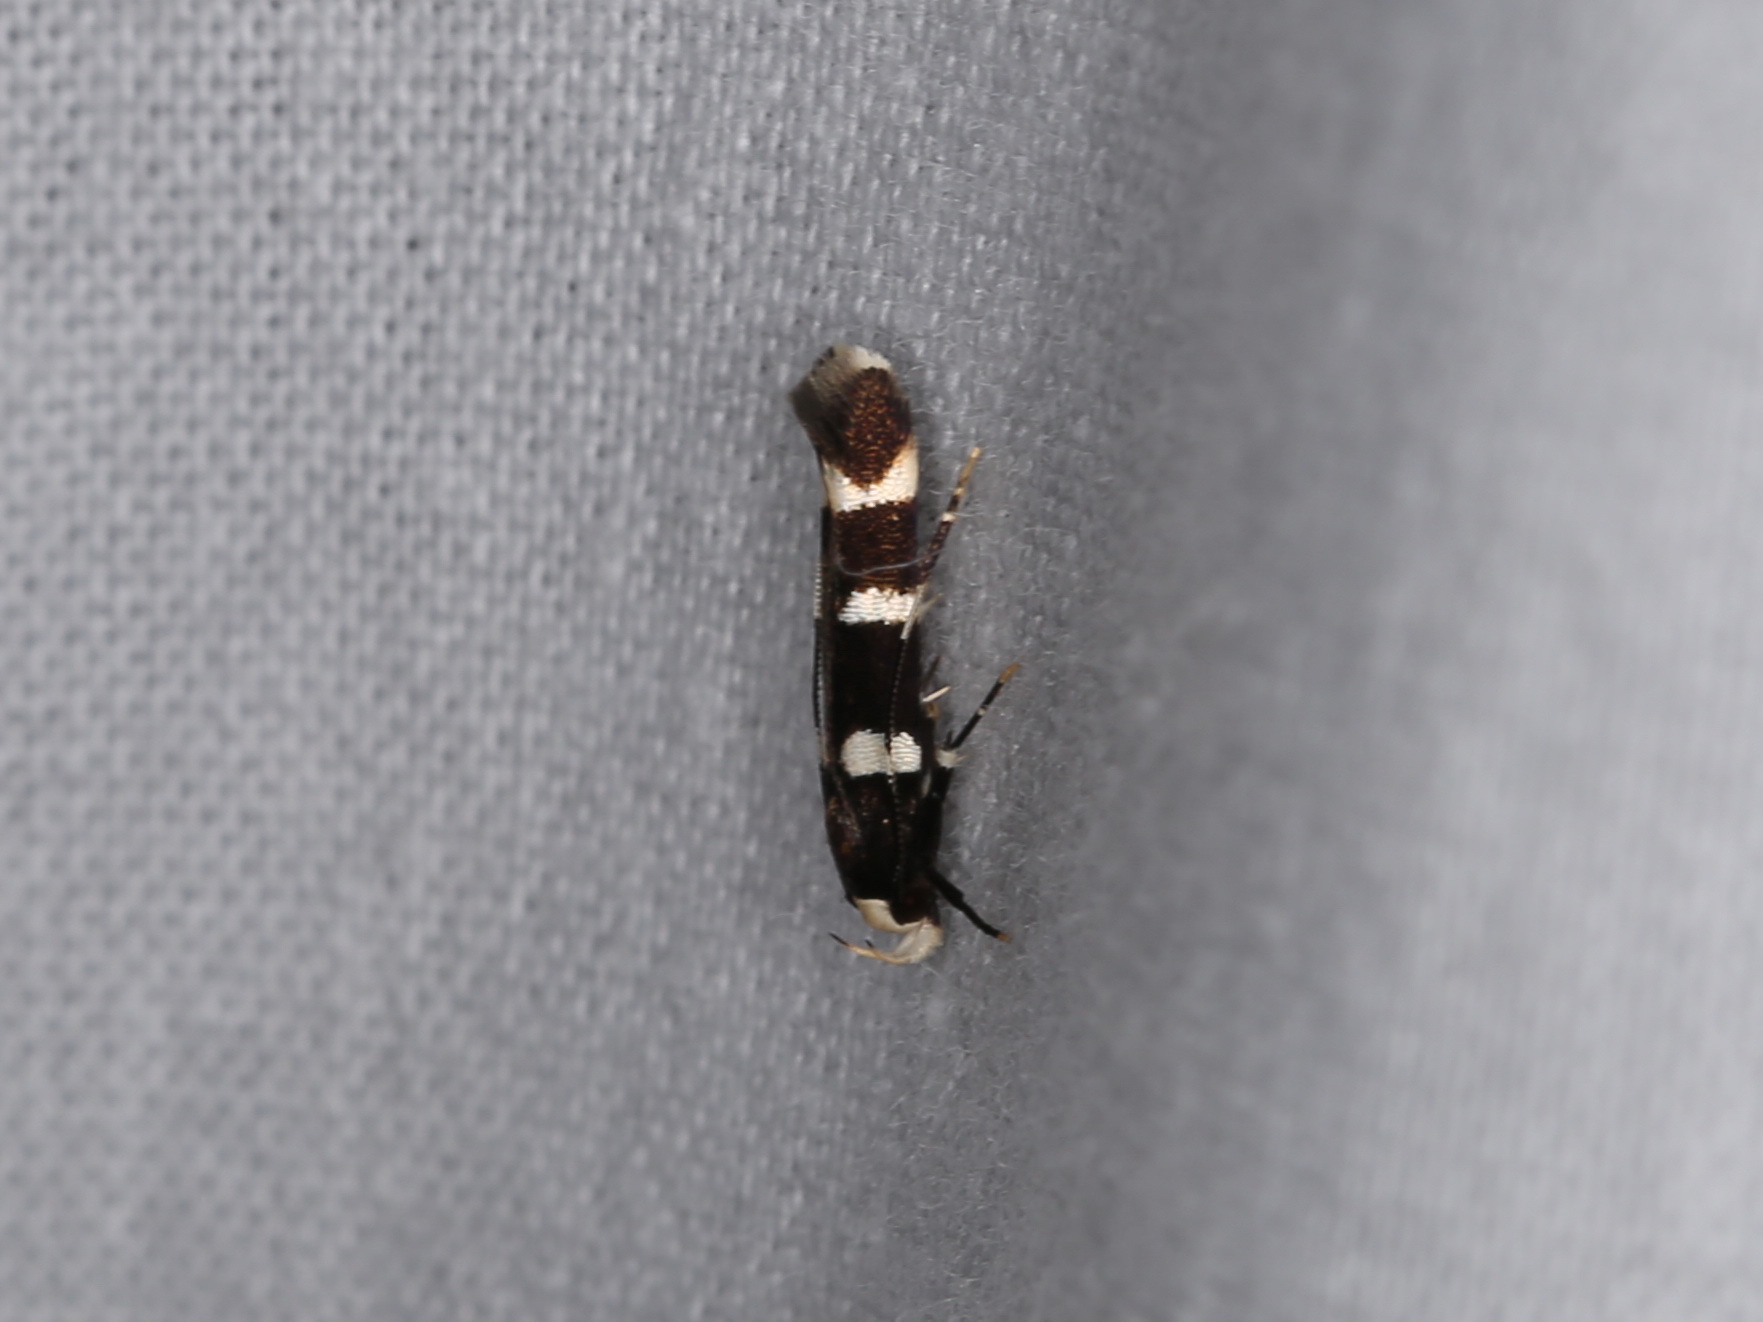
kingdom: Animalia
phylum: Arthropoda
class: Insecta
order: Lepidoptera
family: Cosmopterigidae
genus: Limnaecia
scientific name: Limnaecia chionospila
